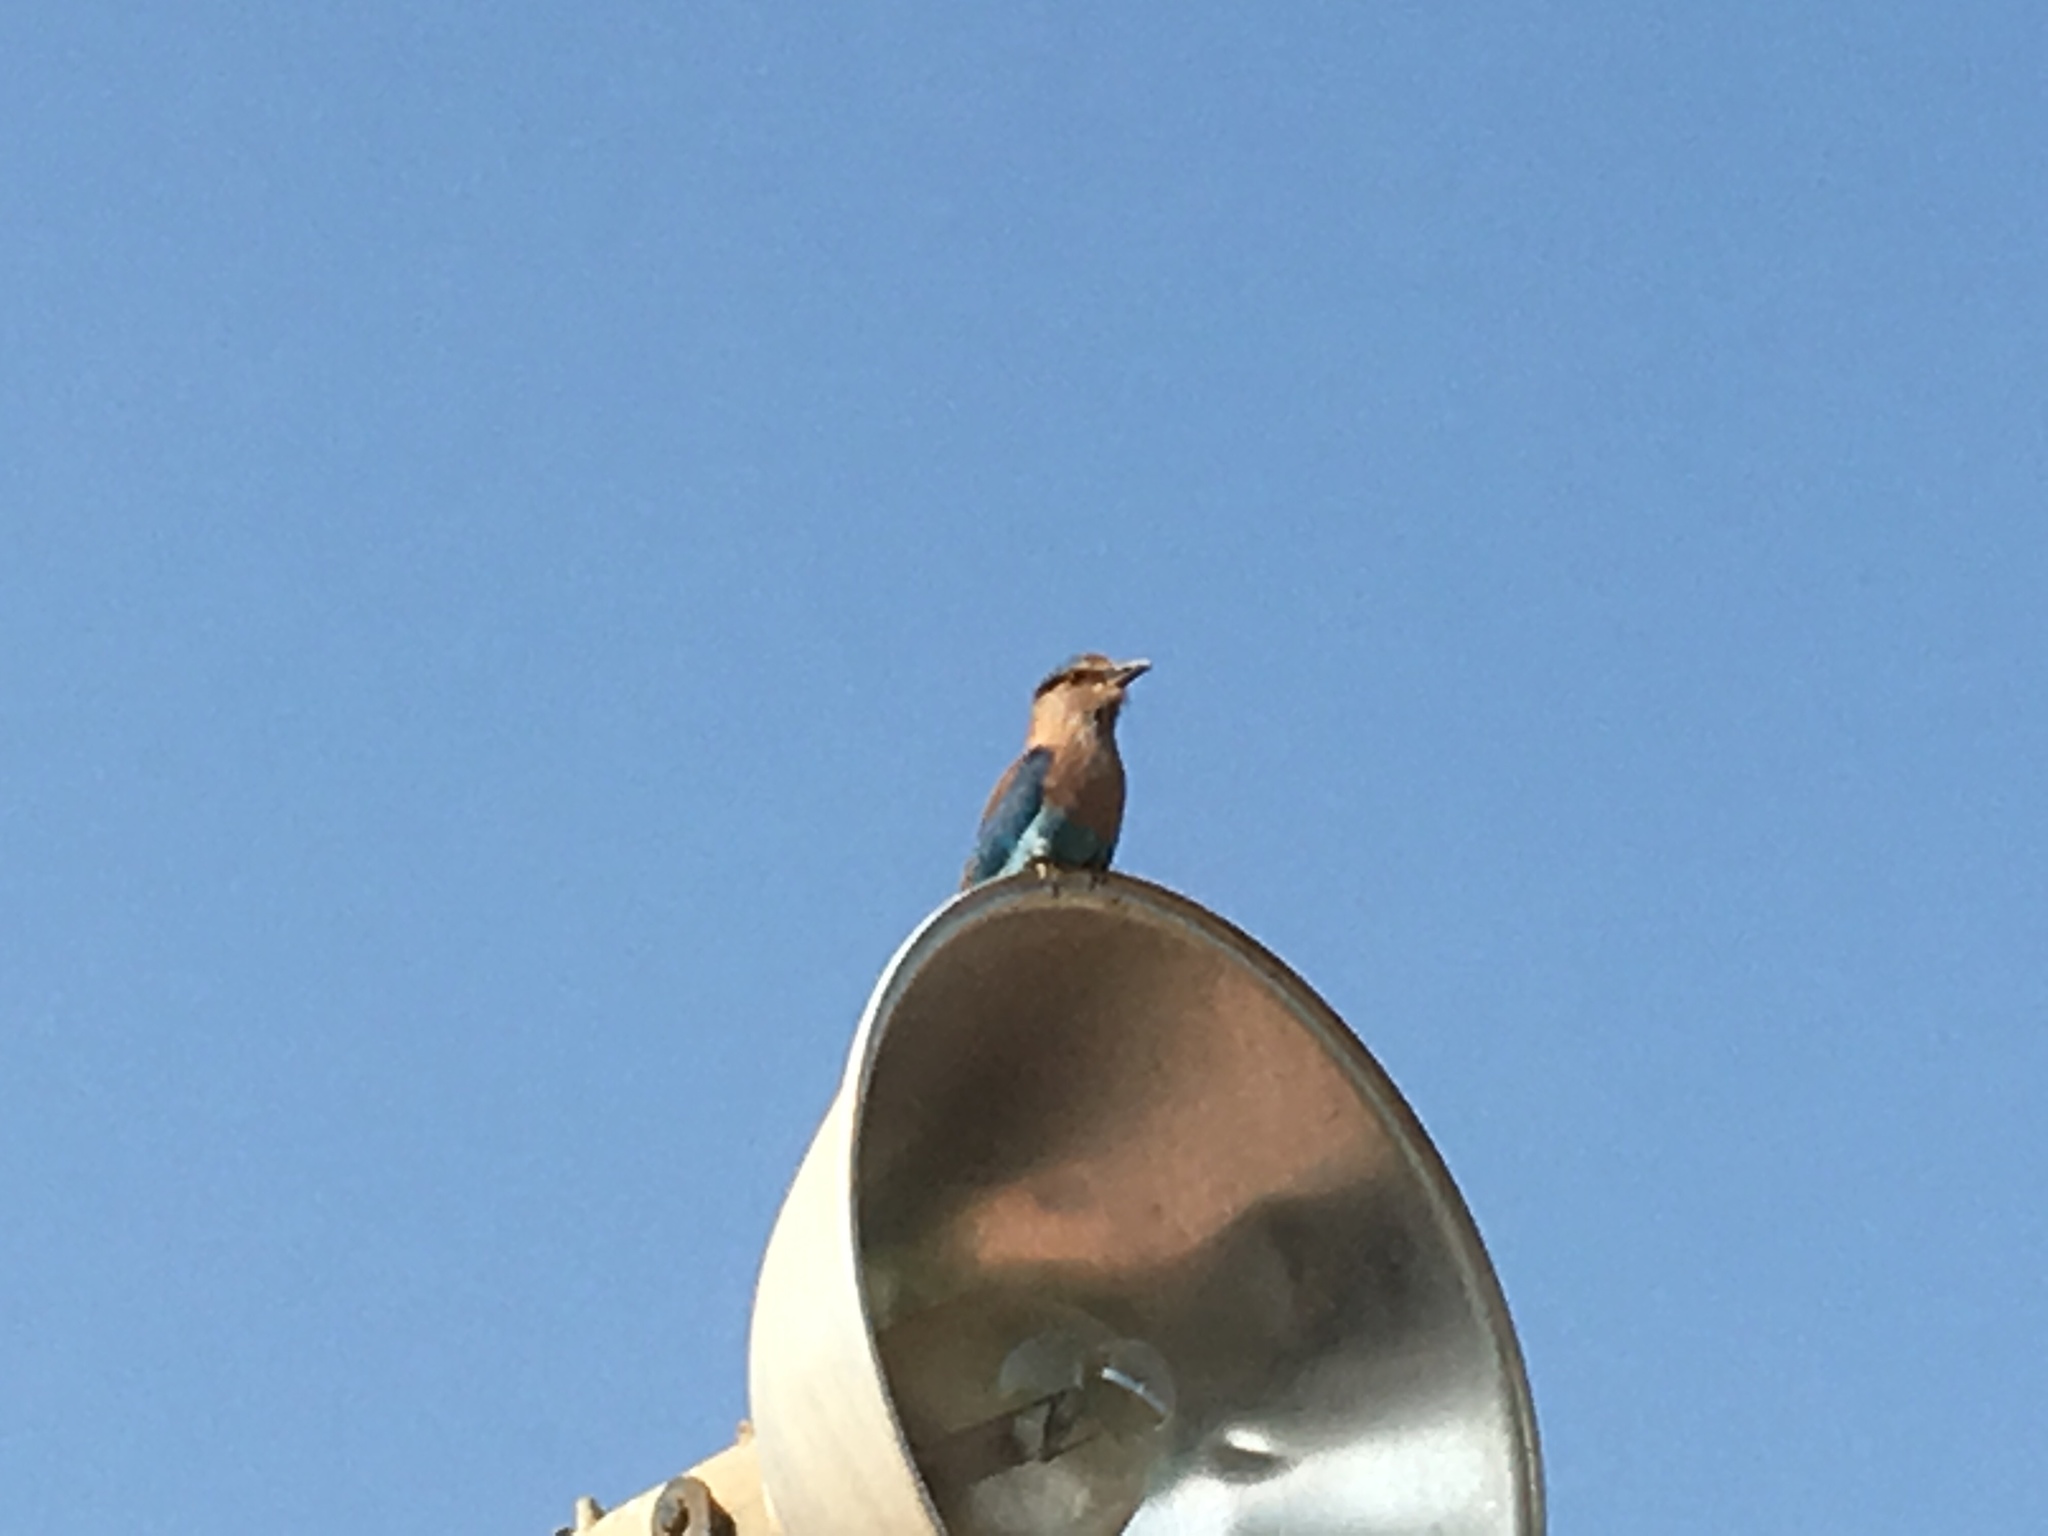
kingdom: Animalia
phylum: Chordata
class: Aves
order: Coraciiformes
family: Coraciidae
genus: Coracias
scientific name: Coracias benghalensis
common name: Indian roller
